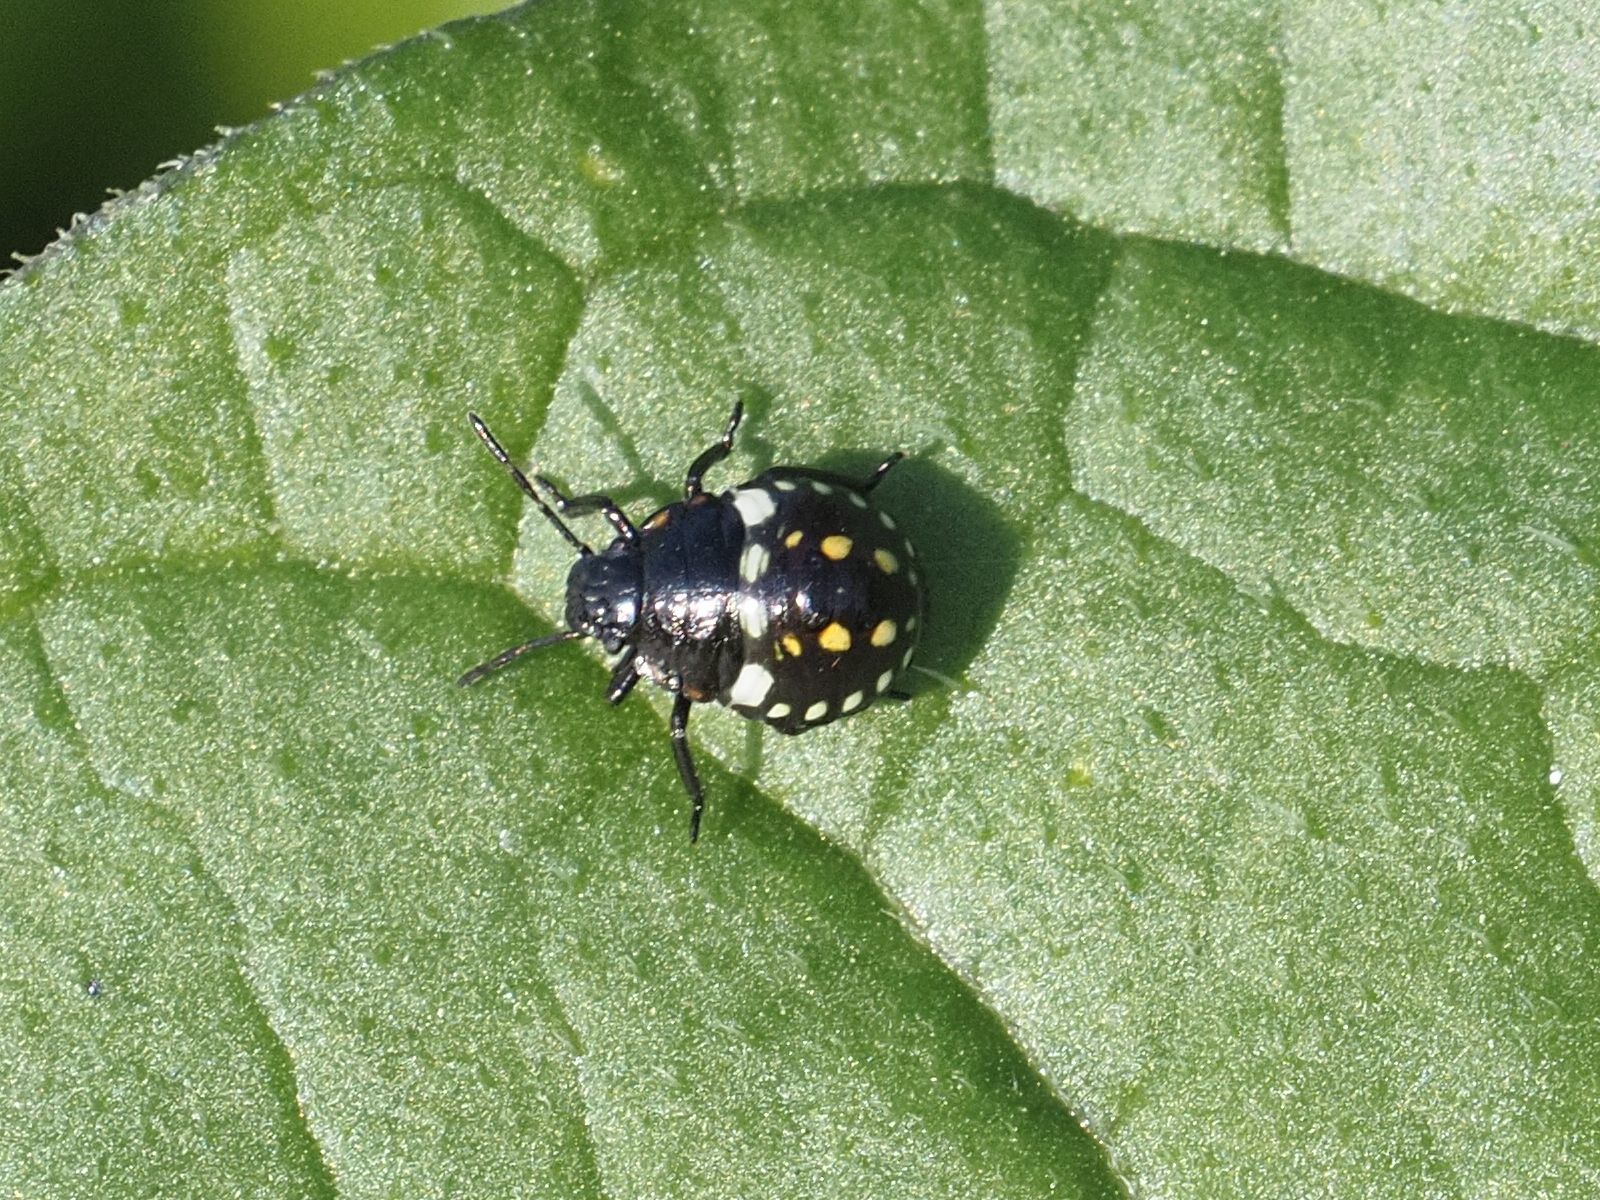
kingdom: Animalia
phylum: Arthropoda
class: Insecta
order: Hemiptera
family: Pentatomidae
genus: Nezara
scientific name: Nezara viridula
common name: Southern green stink bug
